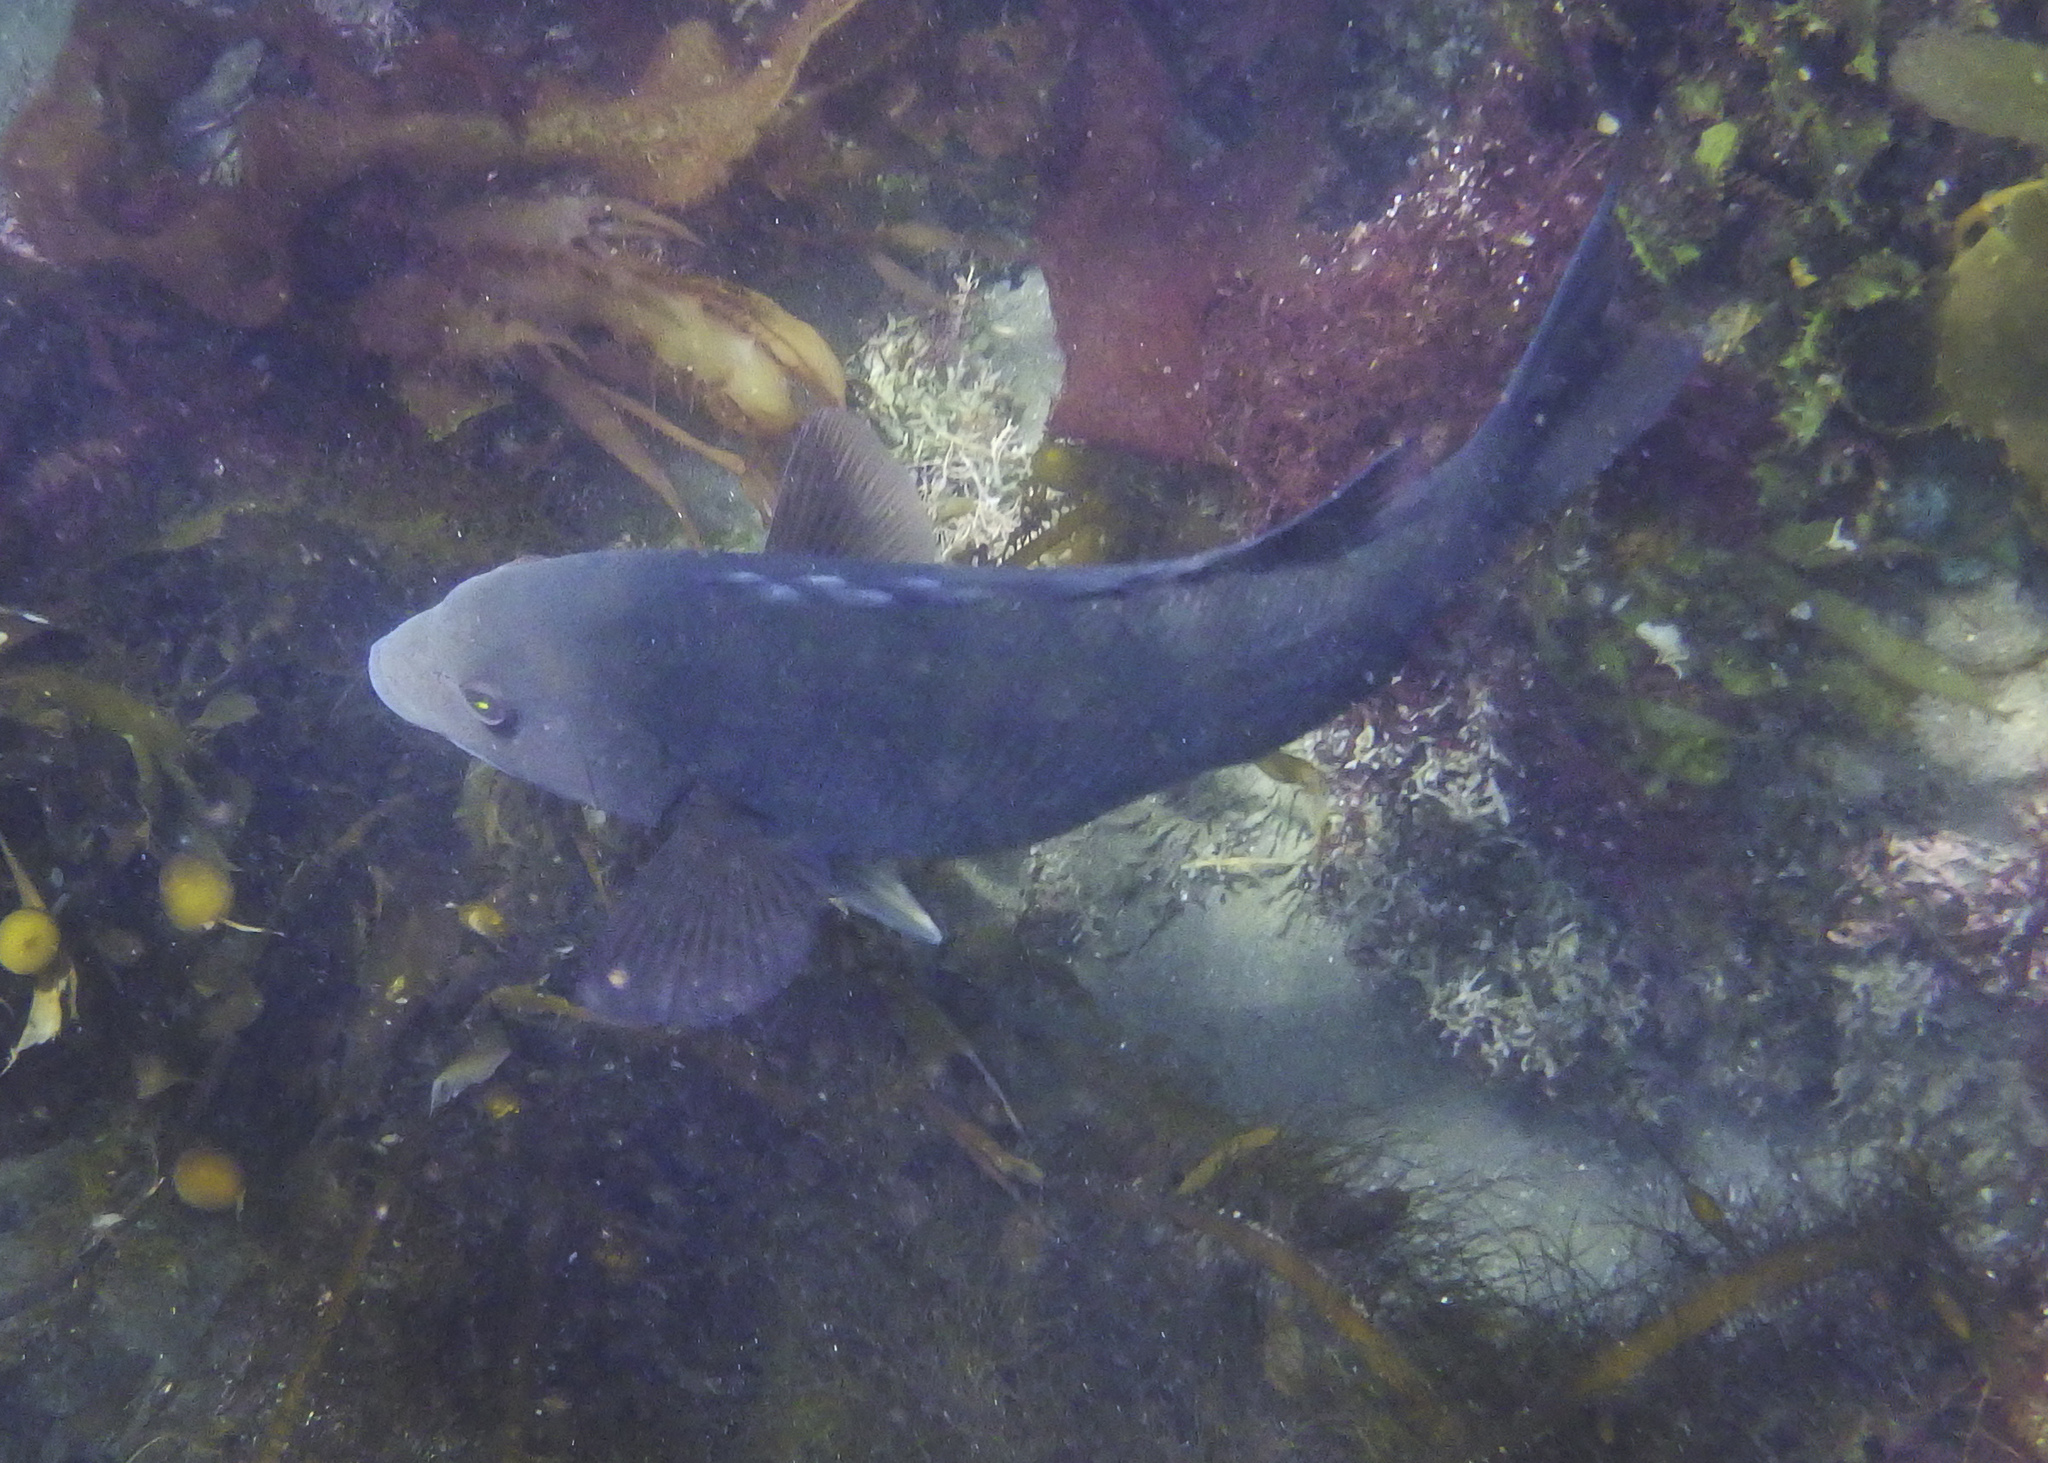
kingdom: Animalia
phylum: Chordata
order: Perciformes
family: Labridae
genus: Semicossyphus
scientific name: Semicossyphus pulcher
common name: California sheephead
